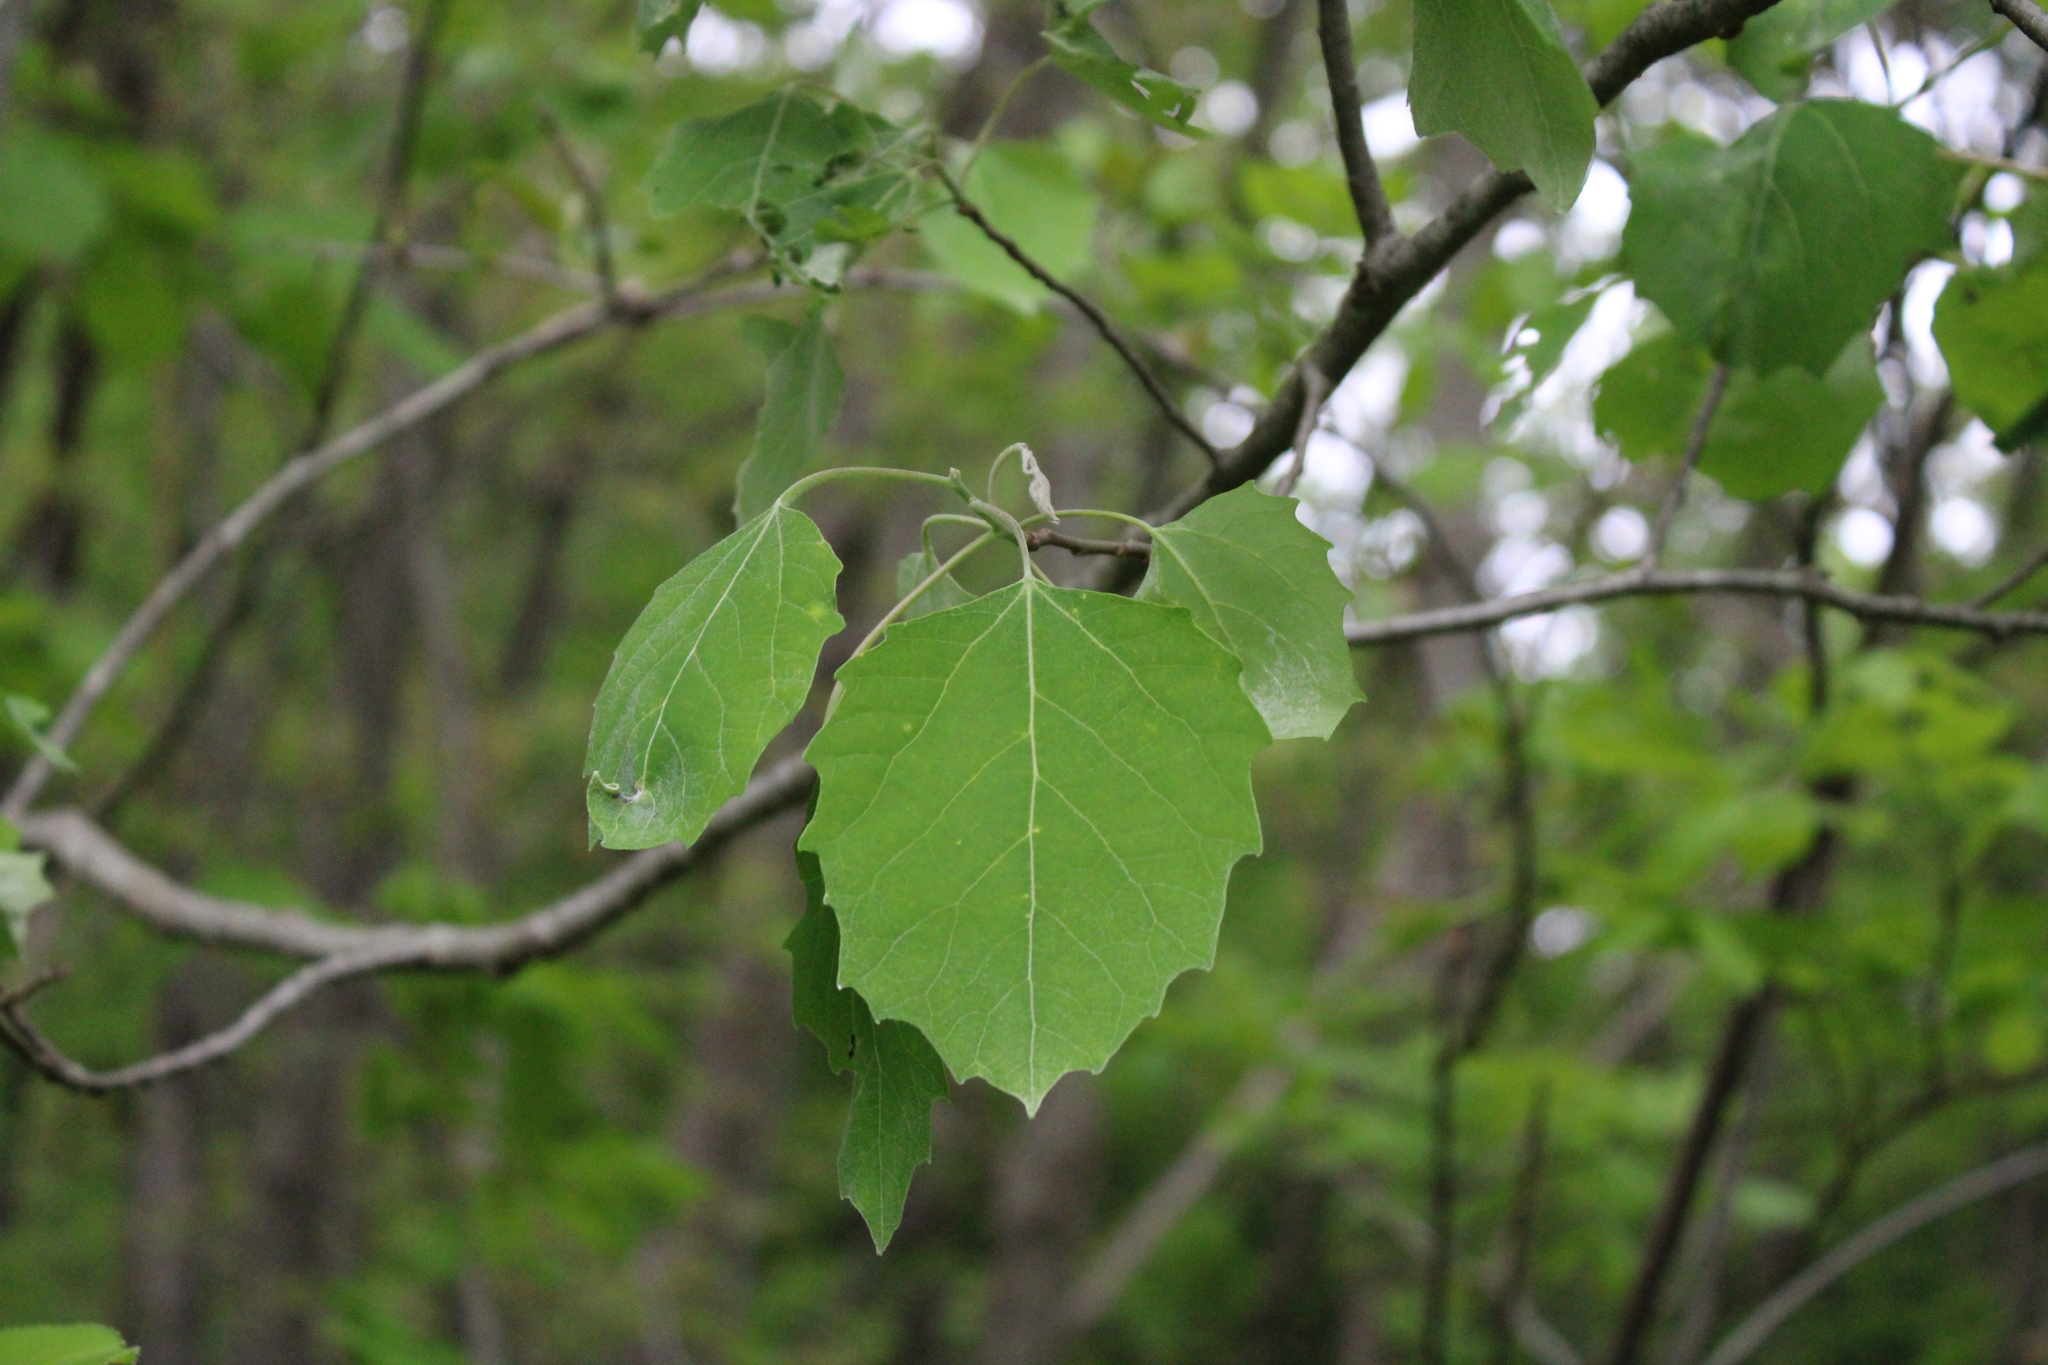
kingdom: Plantae
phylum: Tracheophyta
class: Magnoliopsida
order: Malpighiales
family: Salicaceae
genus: Populus
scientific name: Populus grandidentata
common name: Bigtooth aspen
